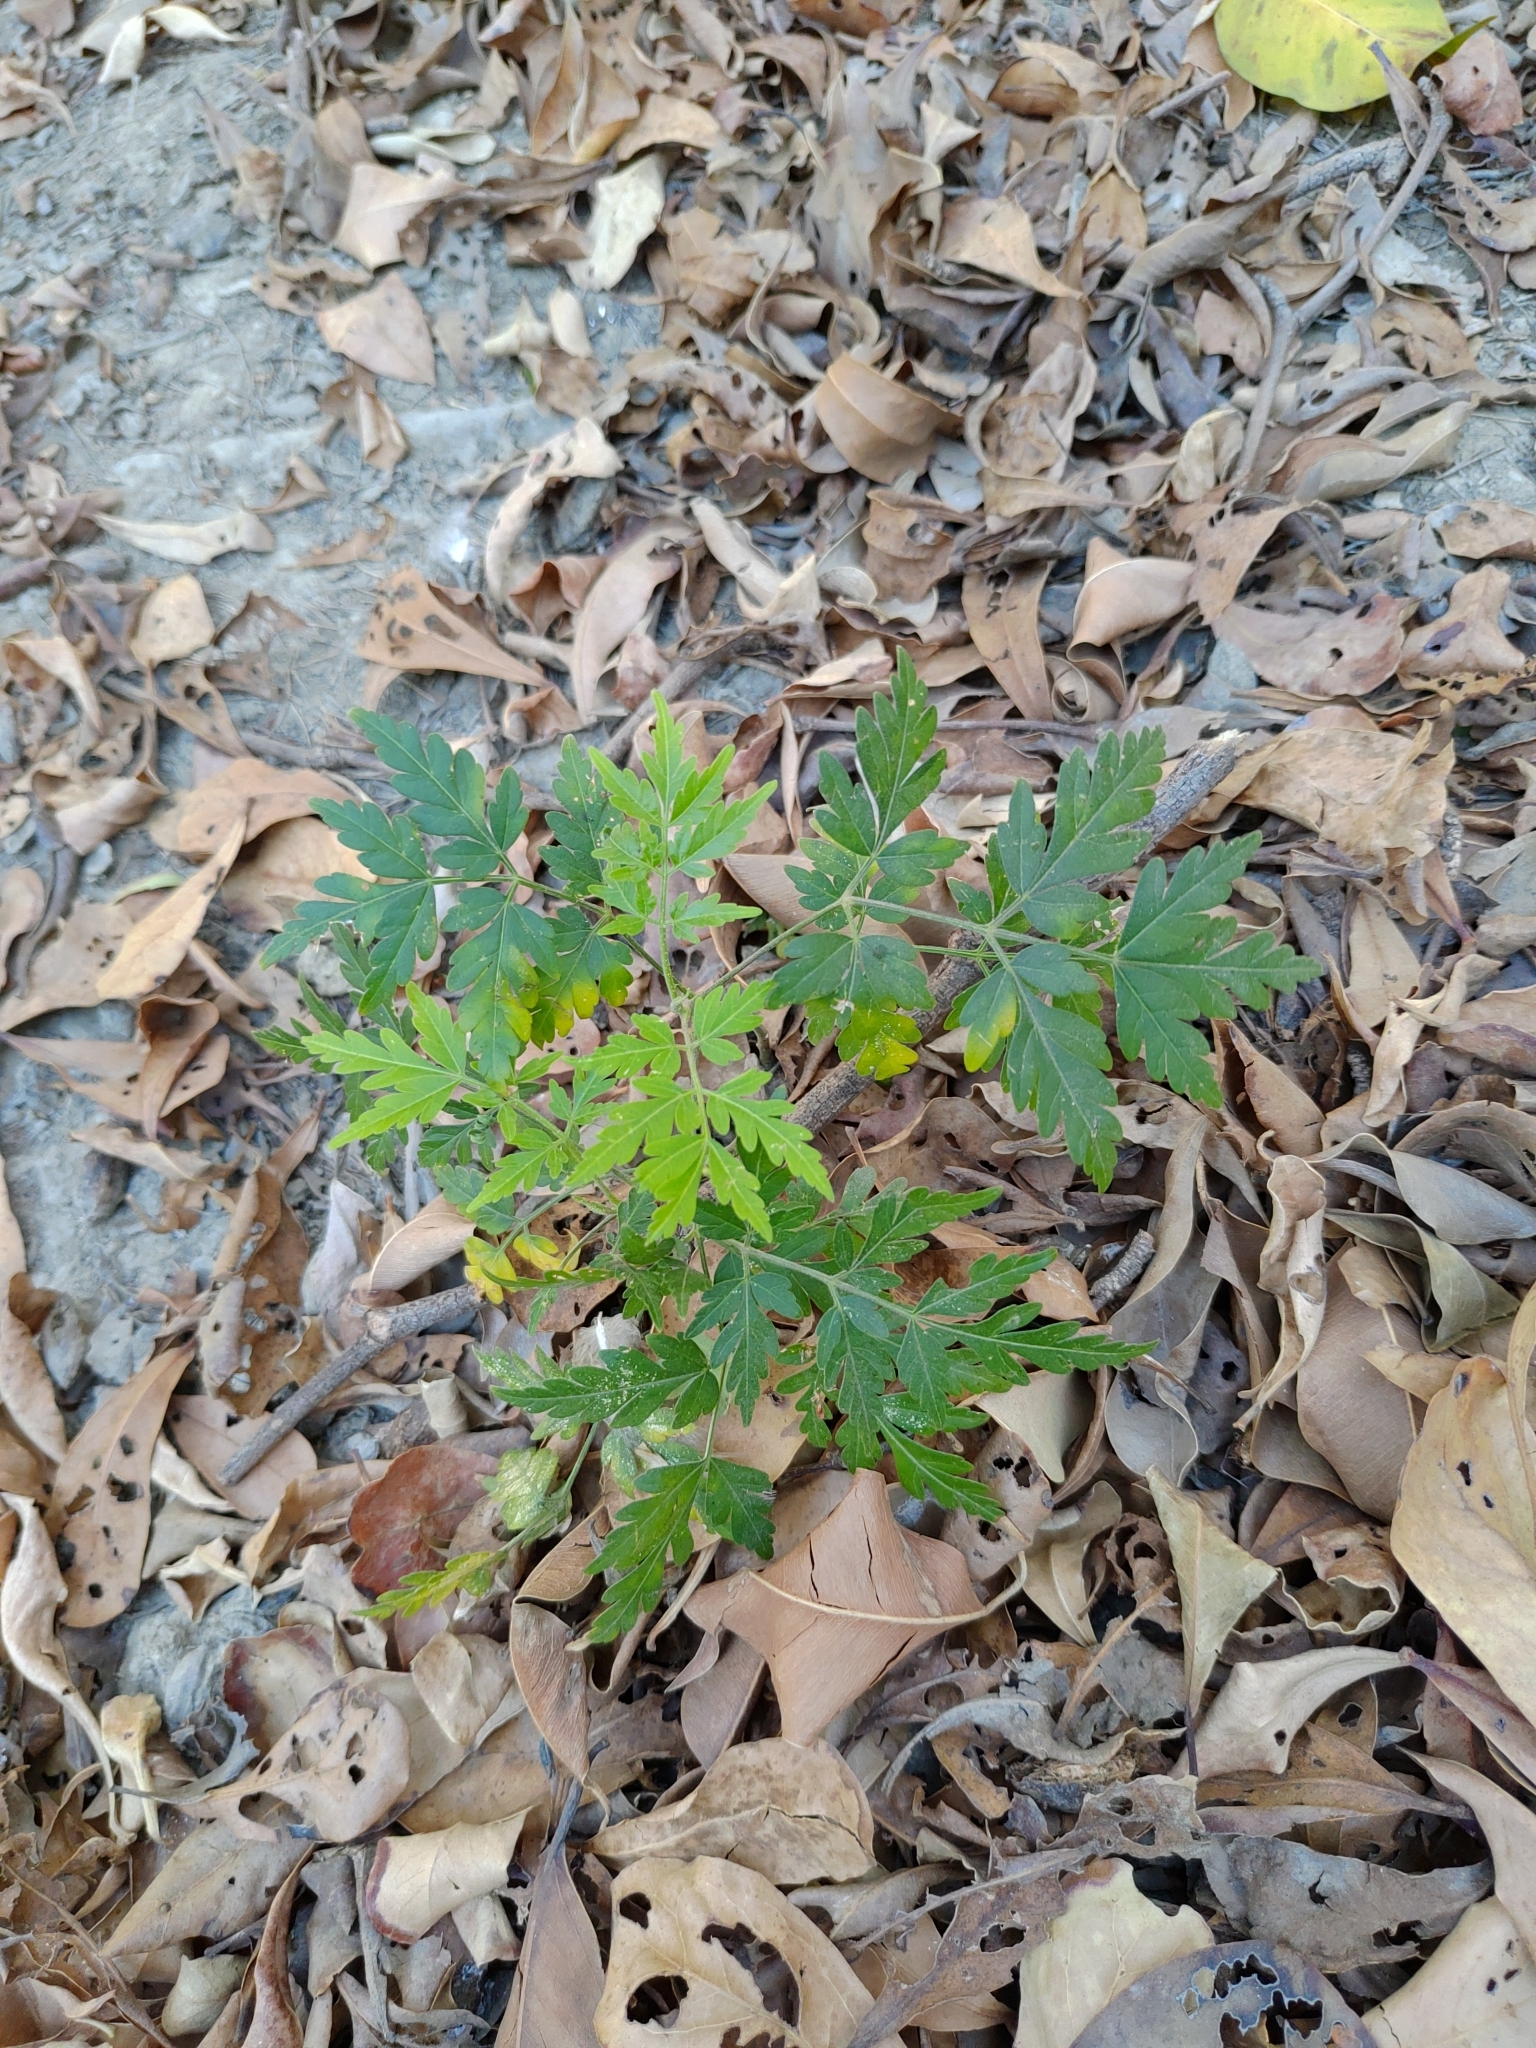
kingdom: Plantae
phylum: Tracheophyta
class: Magnoliopsida
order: Sapindales
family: Meliaceae
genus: Melia
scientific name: Melia azedarach
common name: Chinaberrytree
